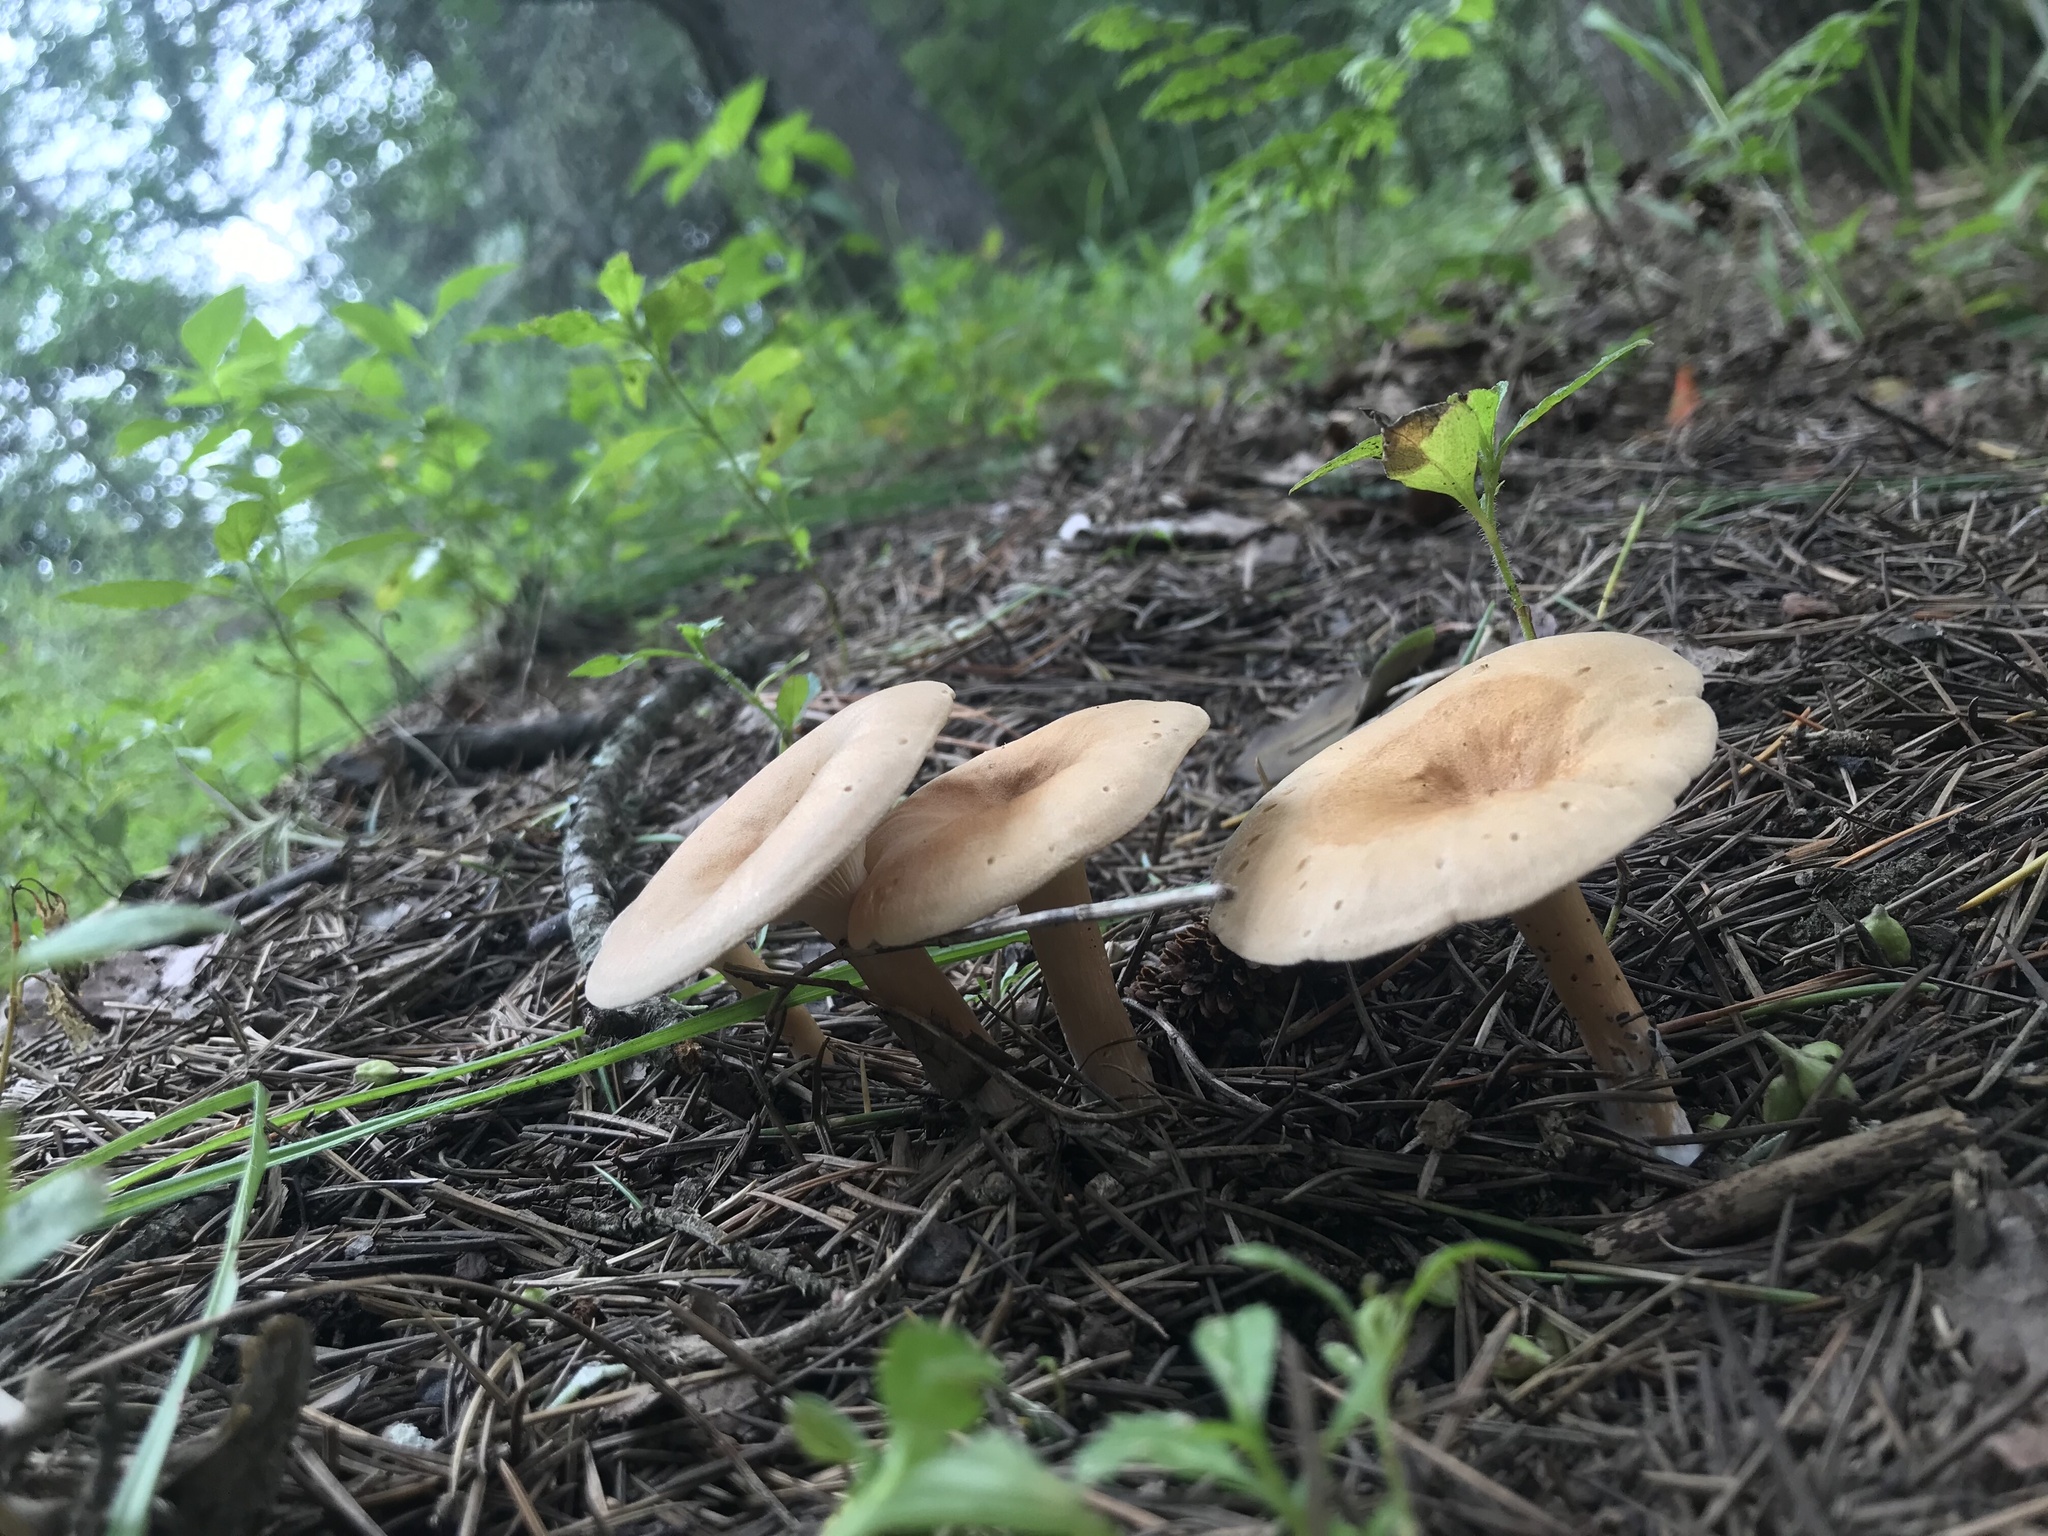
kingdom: Fungi
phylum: Basidiomycota
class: Agaricomycetes
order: Agaricales
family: Tricholomataceae
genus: Paralepista
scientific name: Paralepista flaccida
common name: Tawny funnel cap
